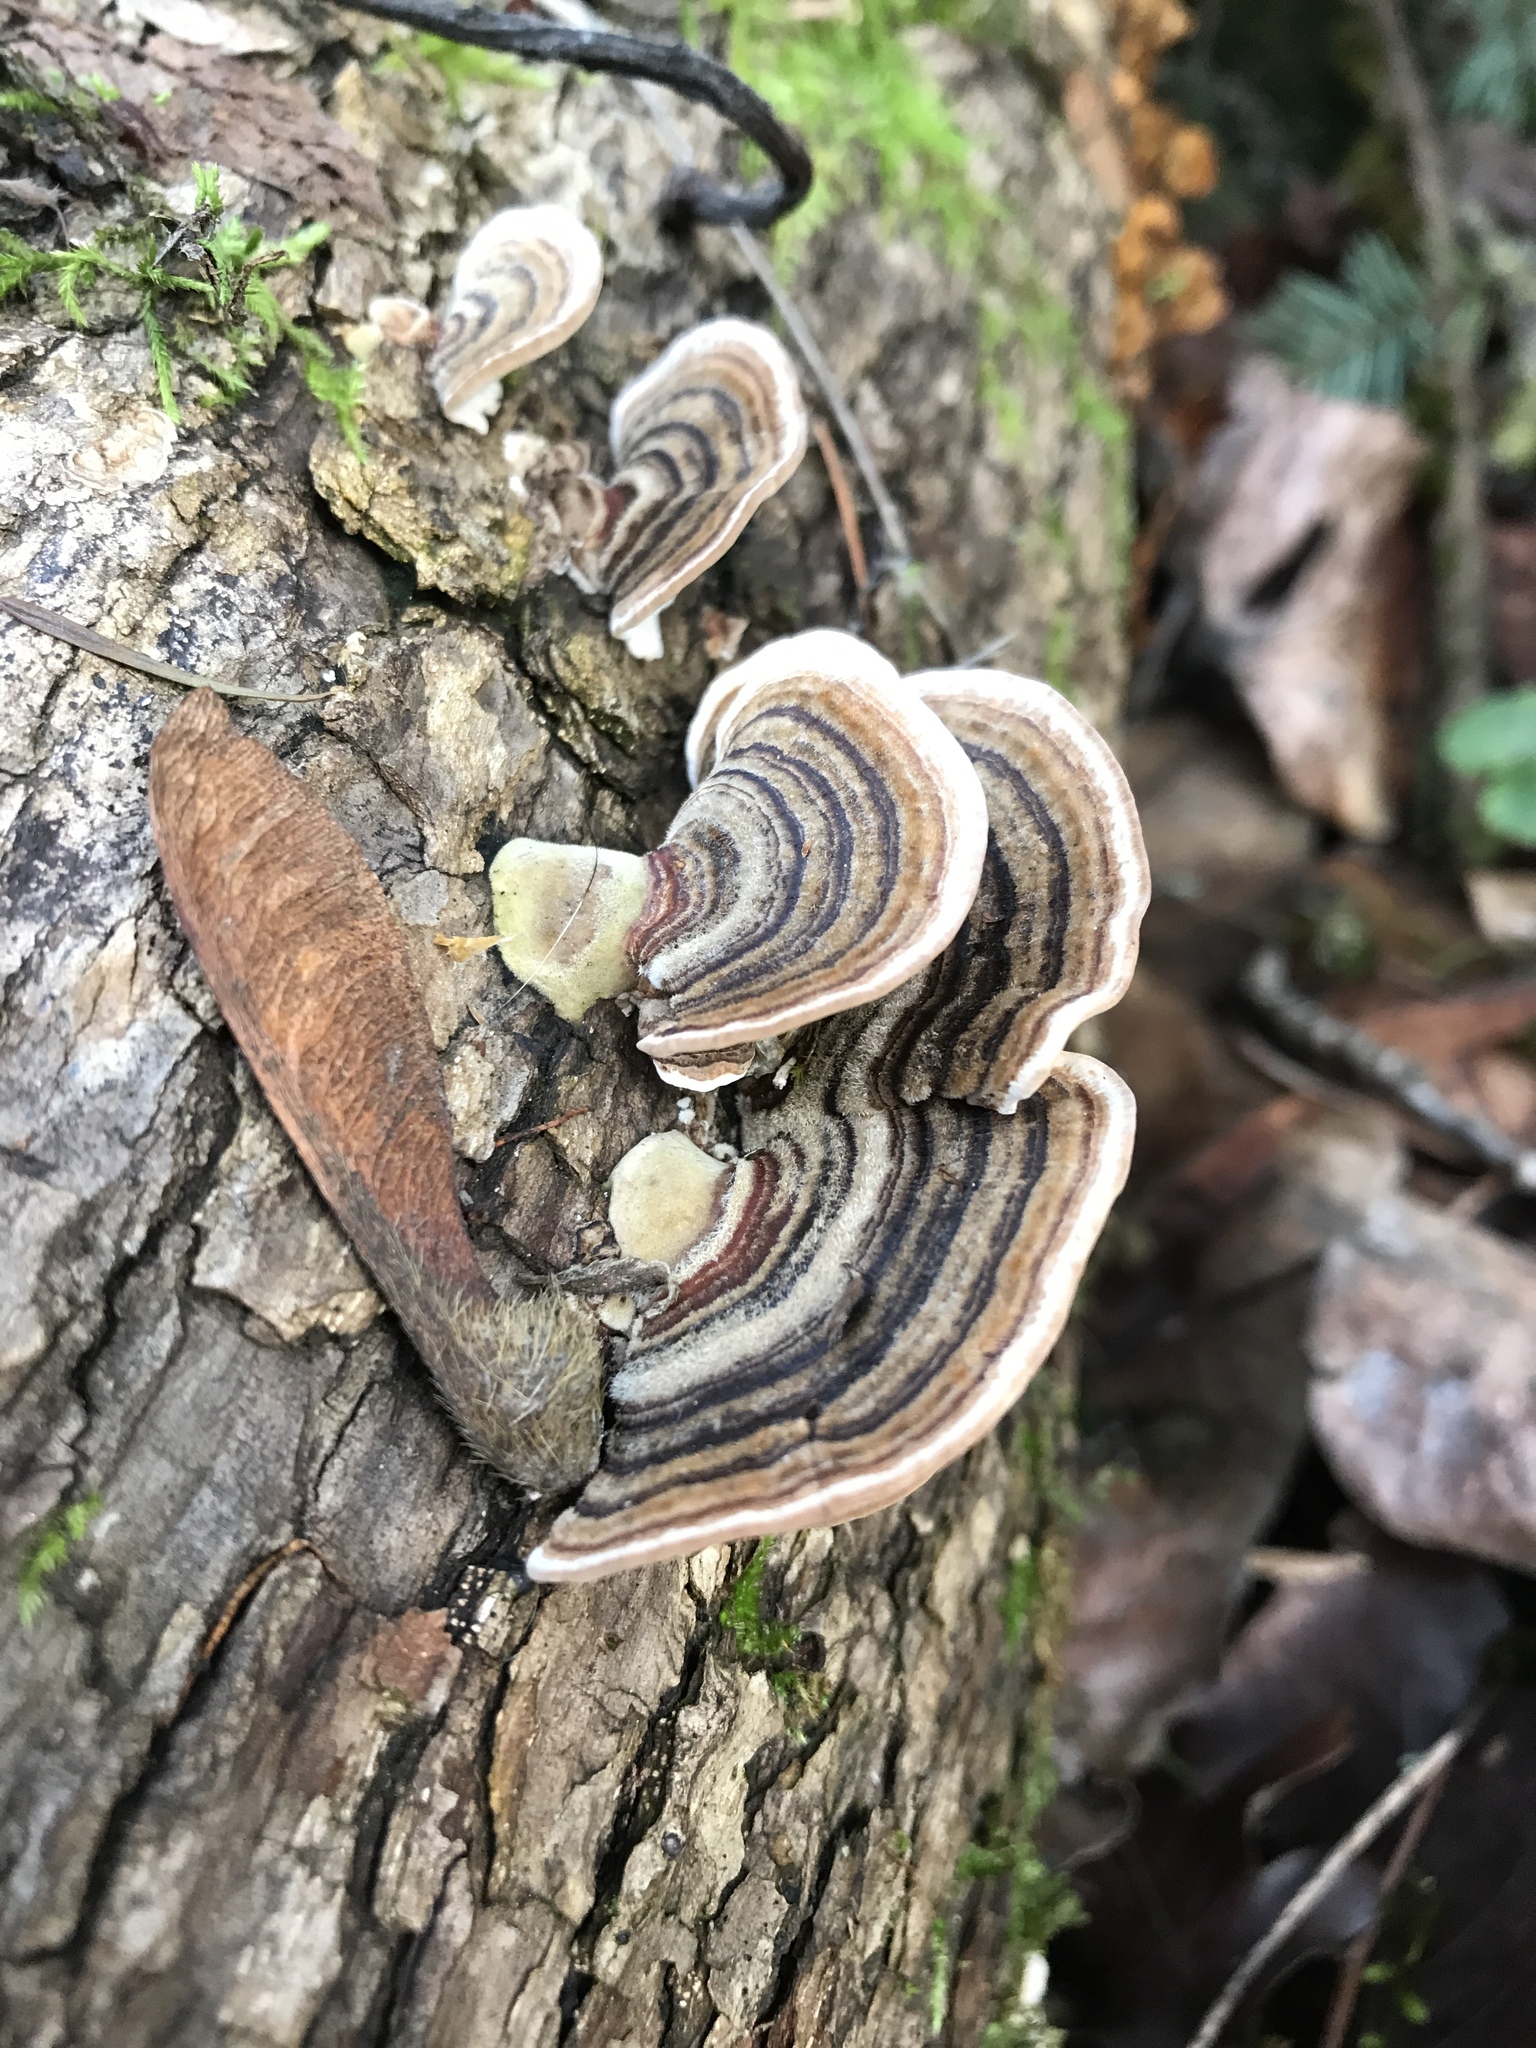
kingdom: Fungi
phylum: Basidiomycota
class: Agaricomycetes
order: Polyporales
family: Polyporaceae
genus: Trametes
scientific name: Trametes versicolor
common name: Turkeytail
